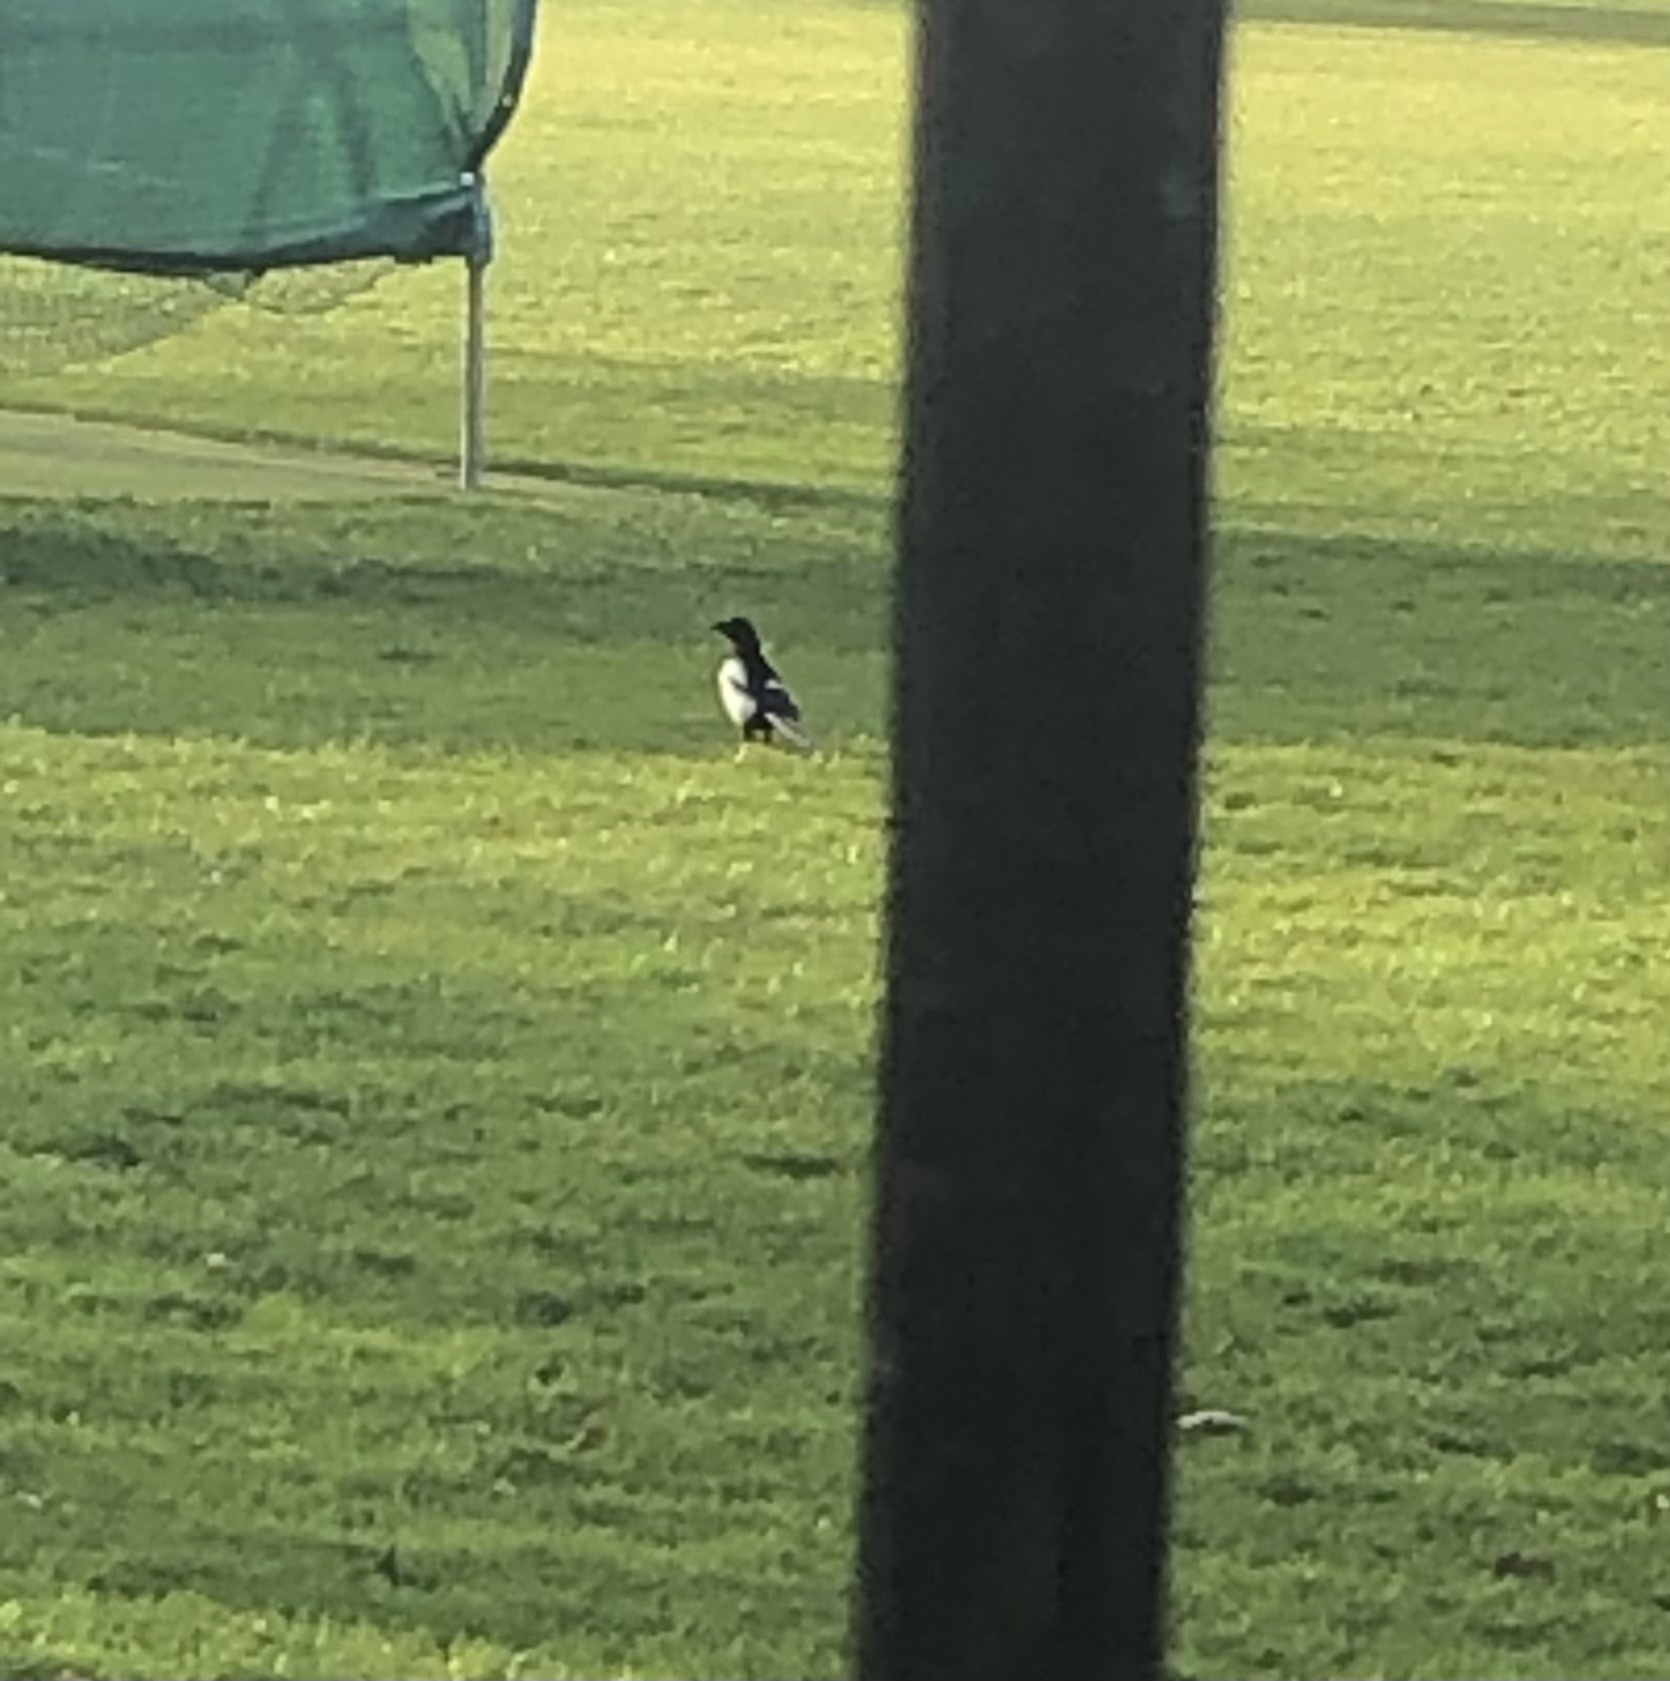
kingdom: Animalia
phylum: Chordata
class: Aves
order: Passeriformes
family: Corvidae
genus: Pica
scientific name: Pica pica
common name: Eurasian magpie
